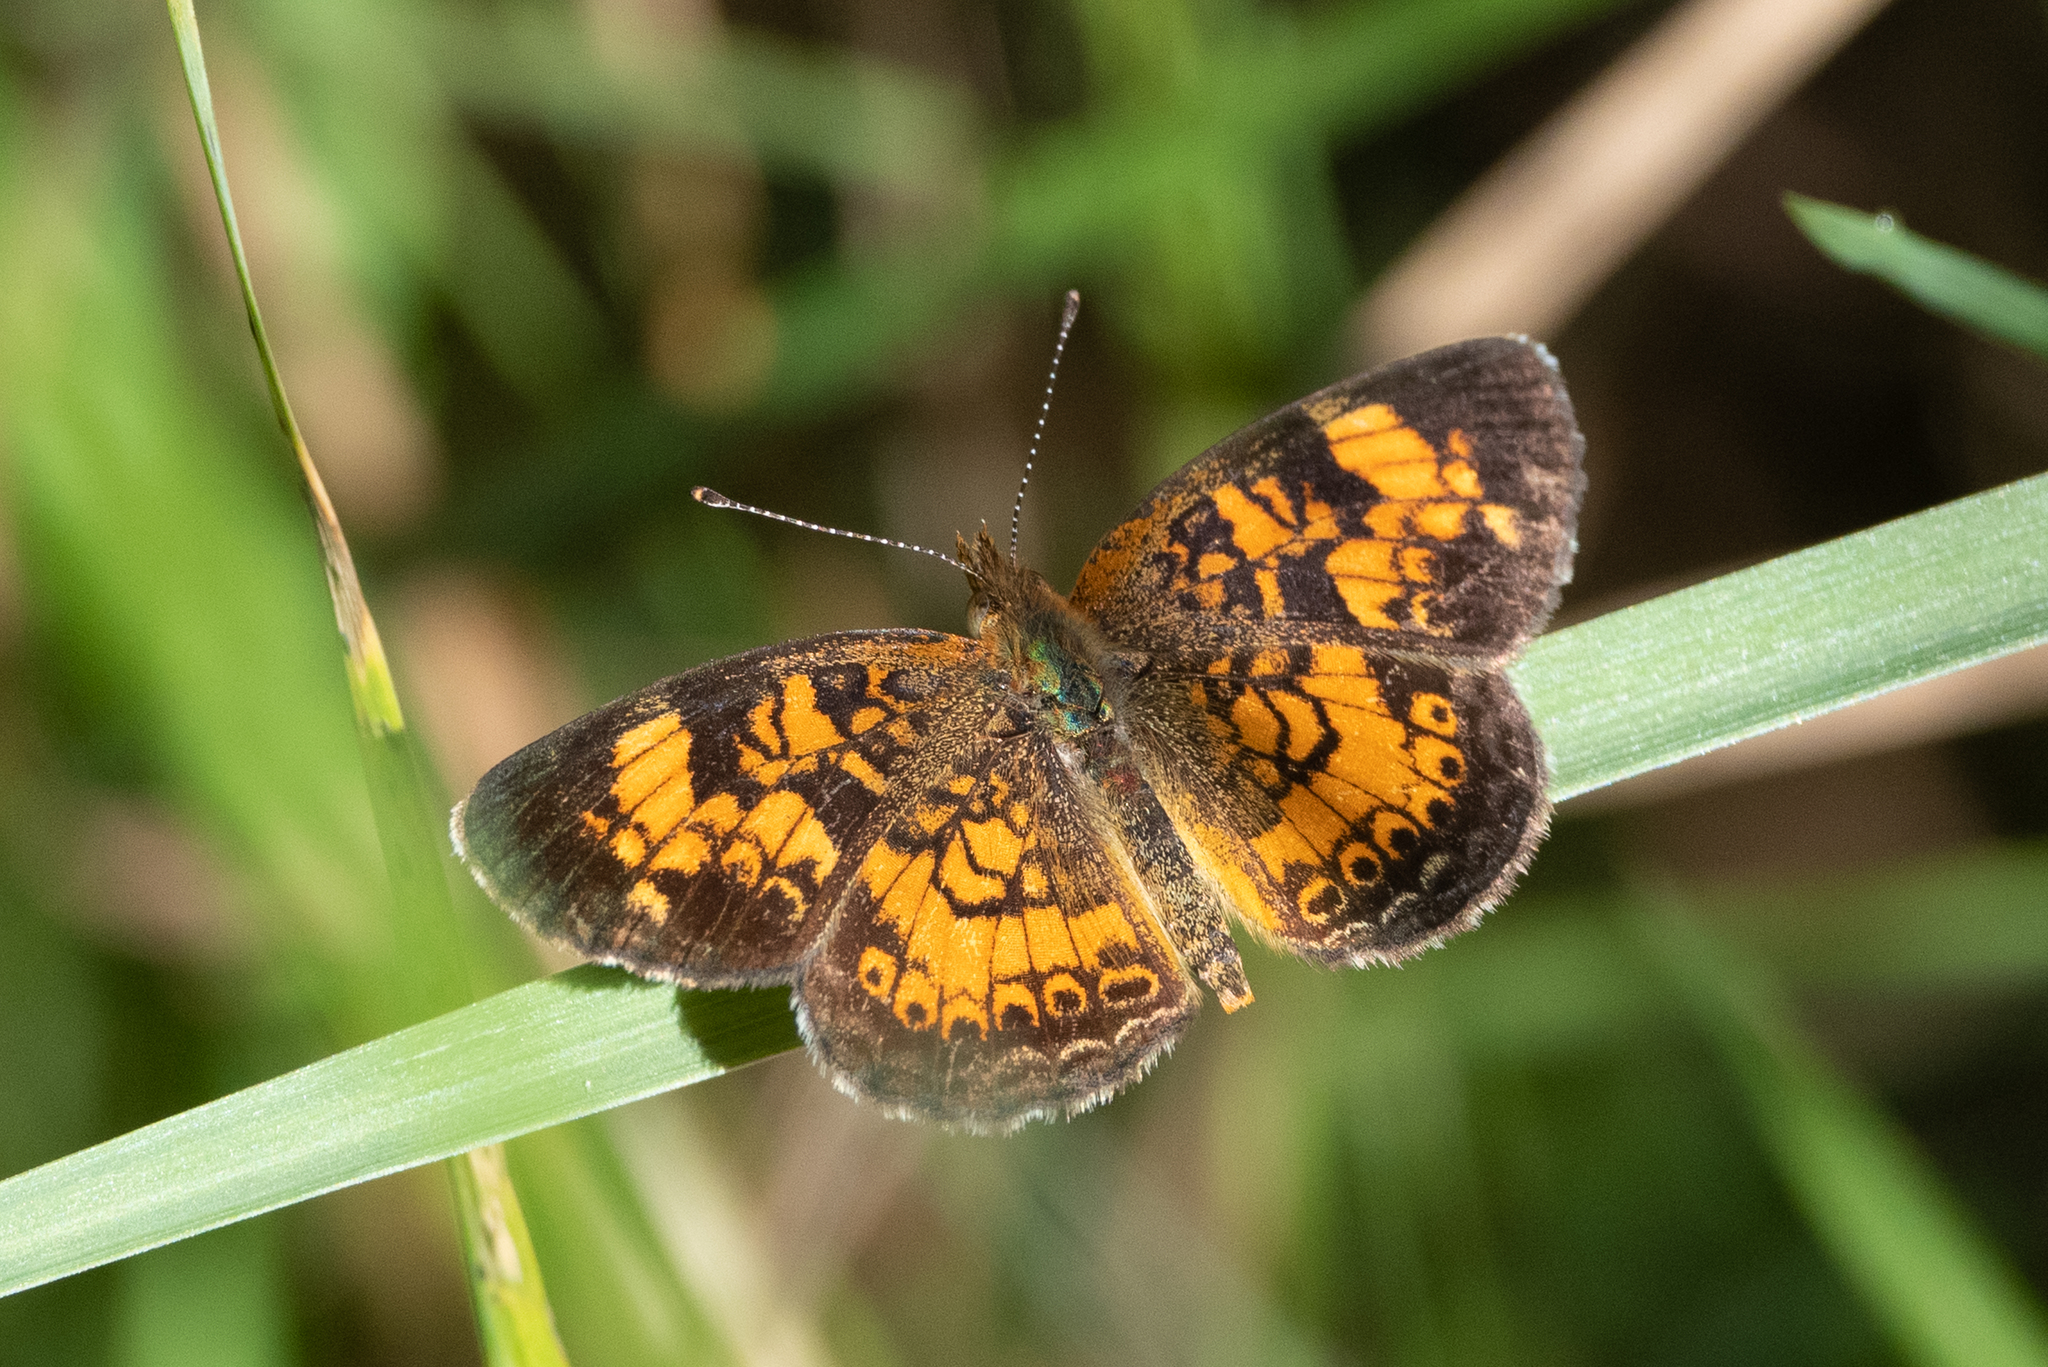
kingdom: Animalia
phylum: Arthropoda
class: Insecta
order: Lepidoptera
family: Nymphalidae
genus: Phyciodes
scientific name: Phyciodes tharos
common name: Pearl crescent
